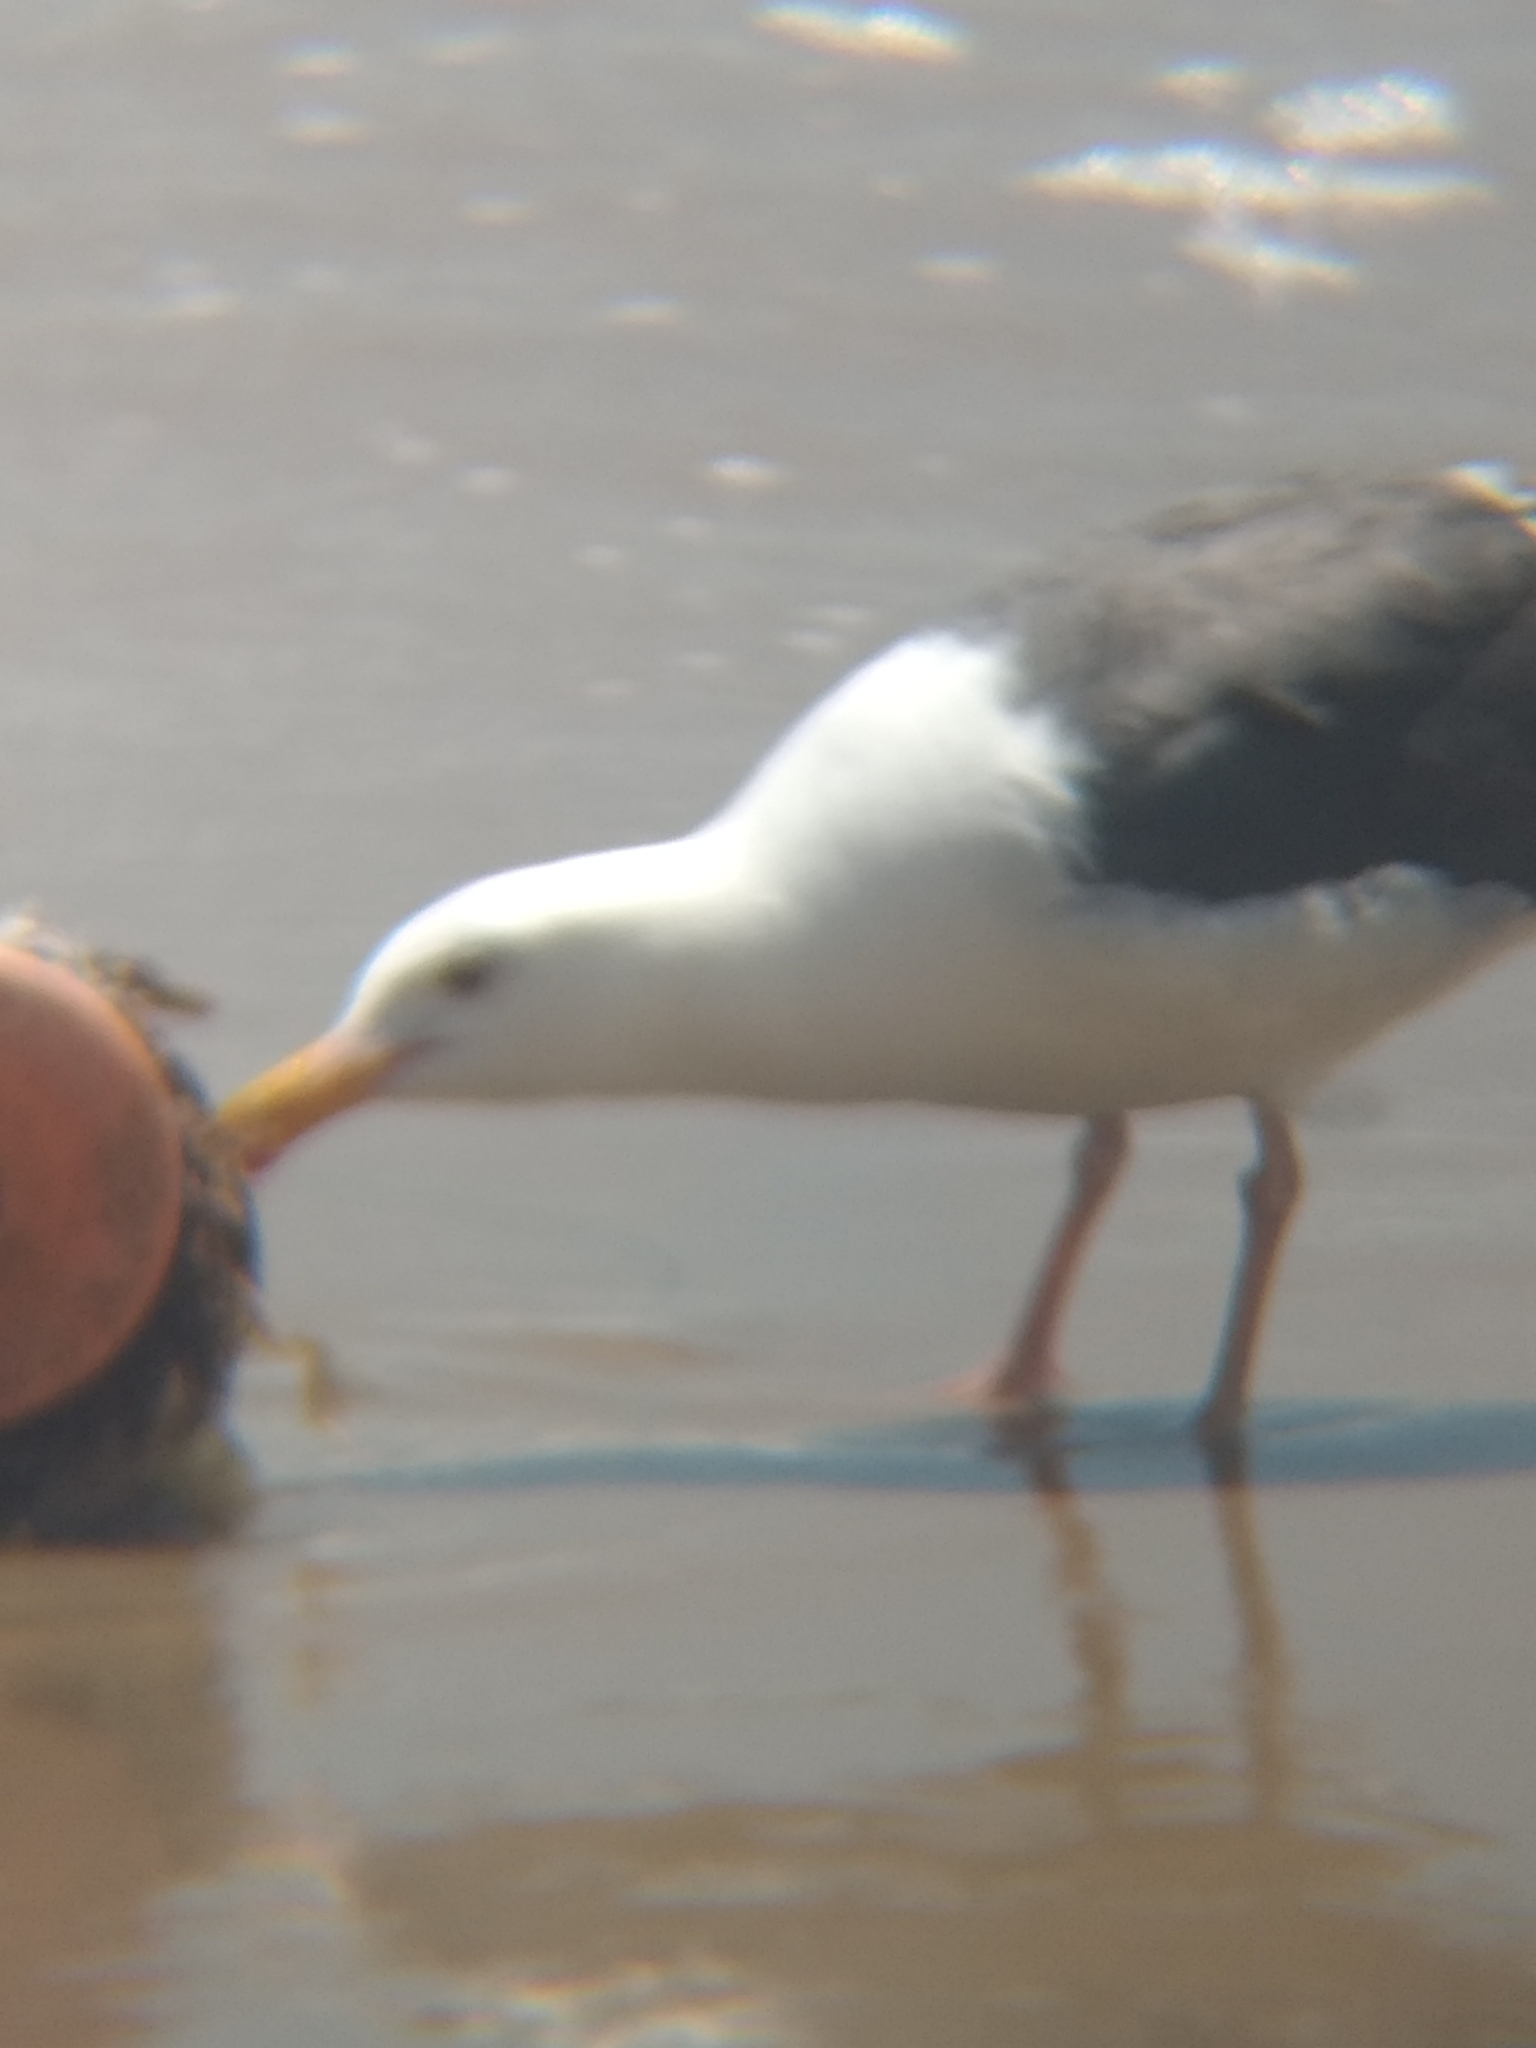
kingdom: Animalia
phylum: Chordata
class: Aves
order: Charadriiformes
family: Laridae
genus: Larus
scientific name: Larus occidentalis
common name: Western gull
